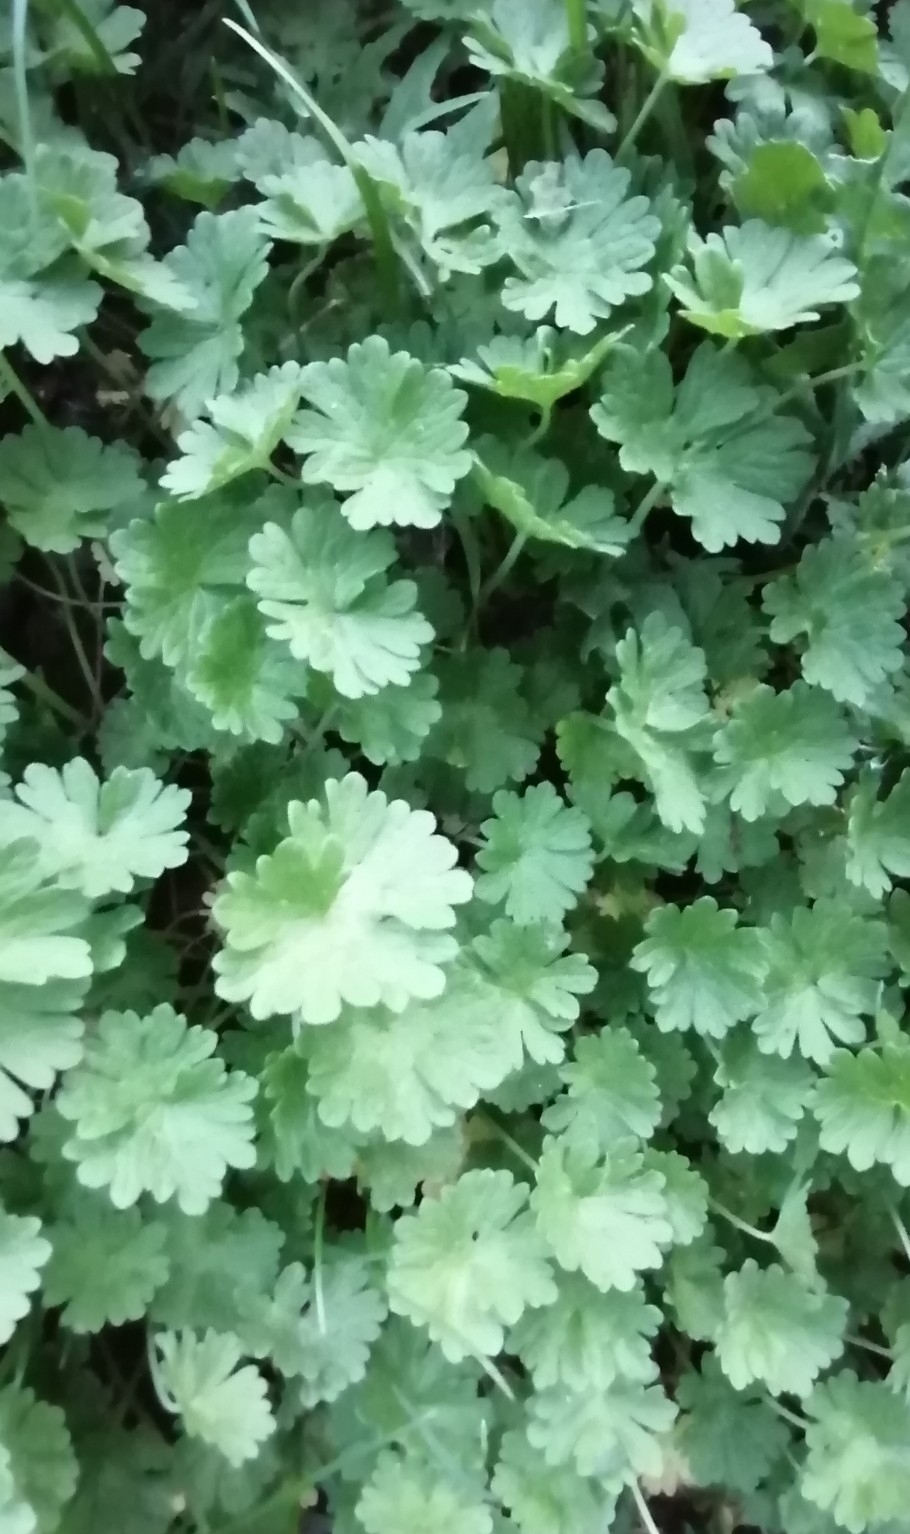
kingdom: Plantae
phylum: Tracheophyta
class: Magnoliopsida
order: Geraniales
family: Geraniaceae
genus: Geranium
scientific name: Geranium pusillum
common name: Small geranium
